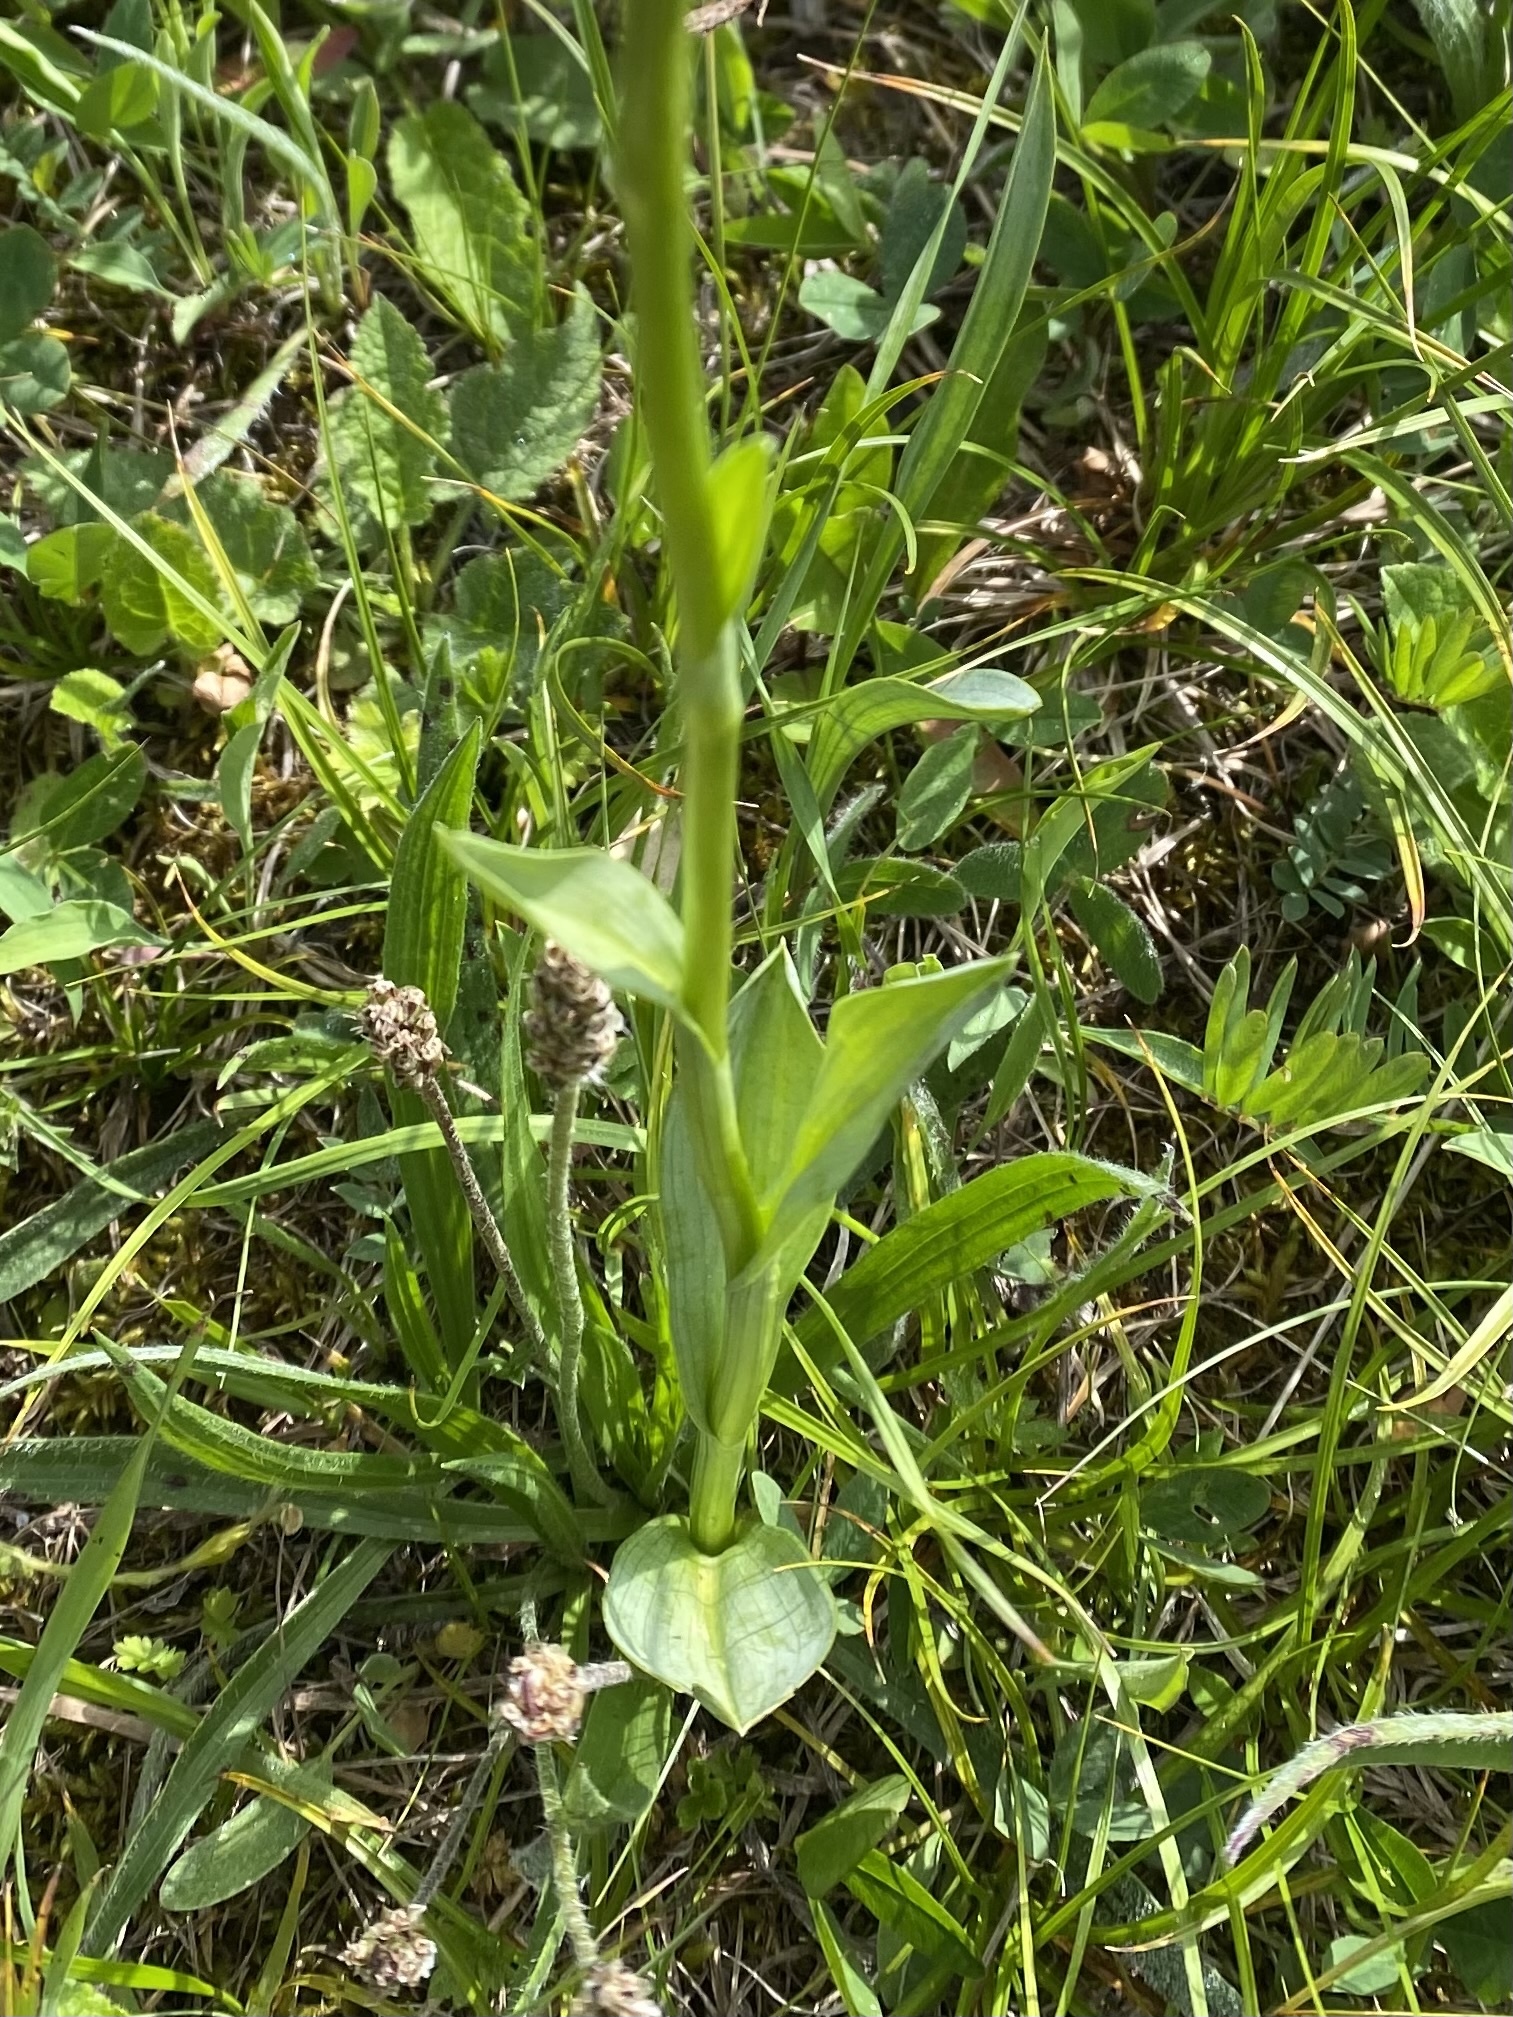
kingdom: Plantae
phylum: Tracheophyta
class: Liliopsida
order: Asparagales
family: Orchidaceae
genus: Traunsteinera
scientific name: Traunsteinera sphaerica
